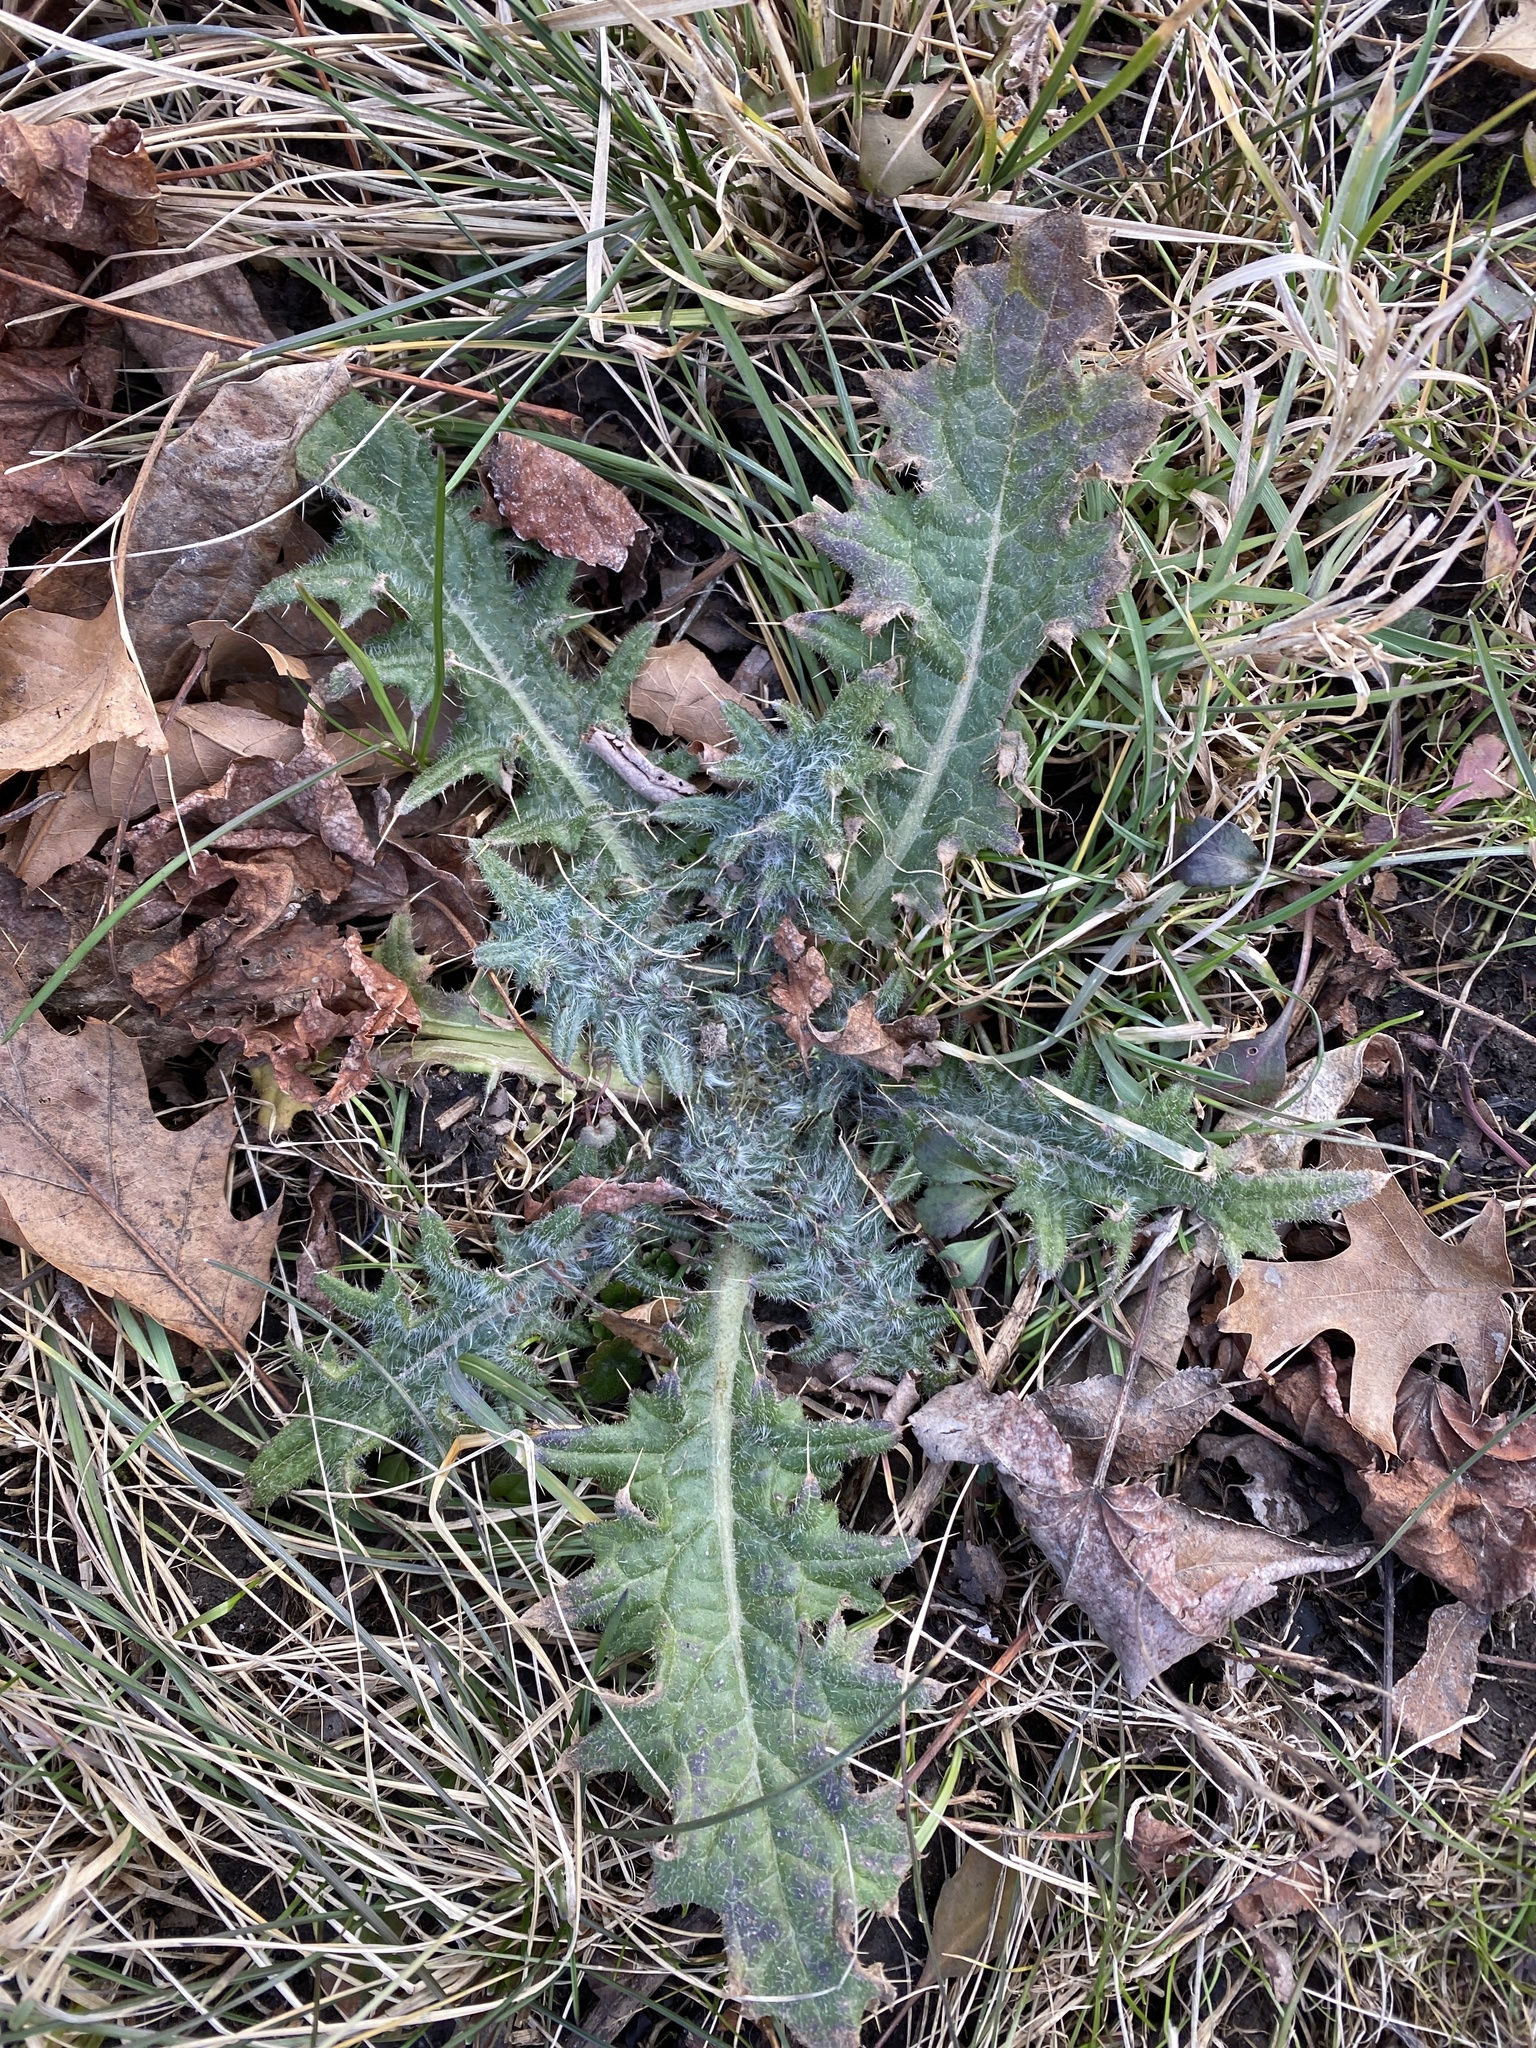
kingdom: Plantae
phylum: Tracheophyta
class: Magnoliopsida
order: Asterales
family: Asteraceae
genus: Cirsium
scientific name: Cirsium vulgare
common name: Bull thistle
